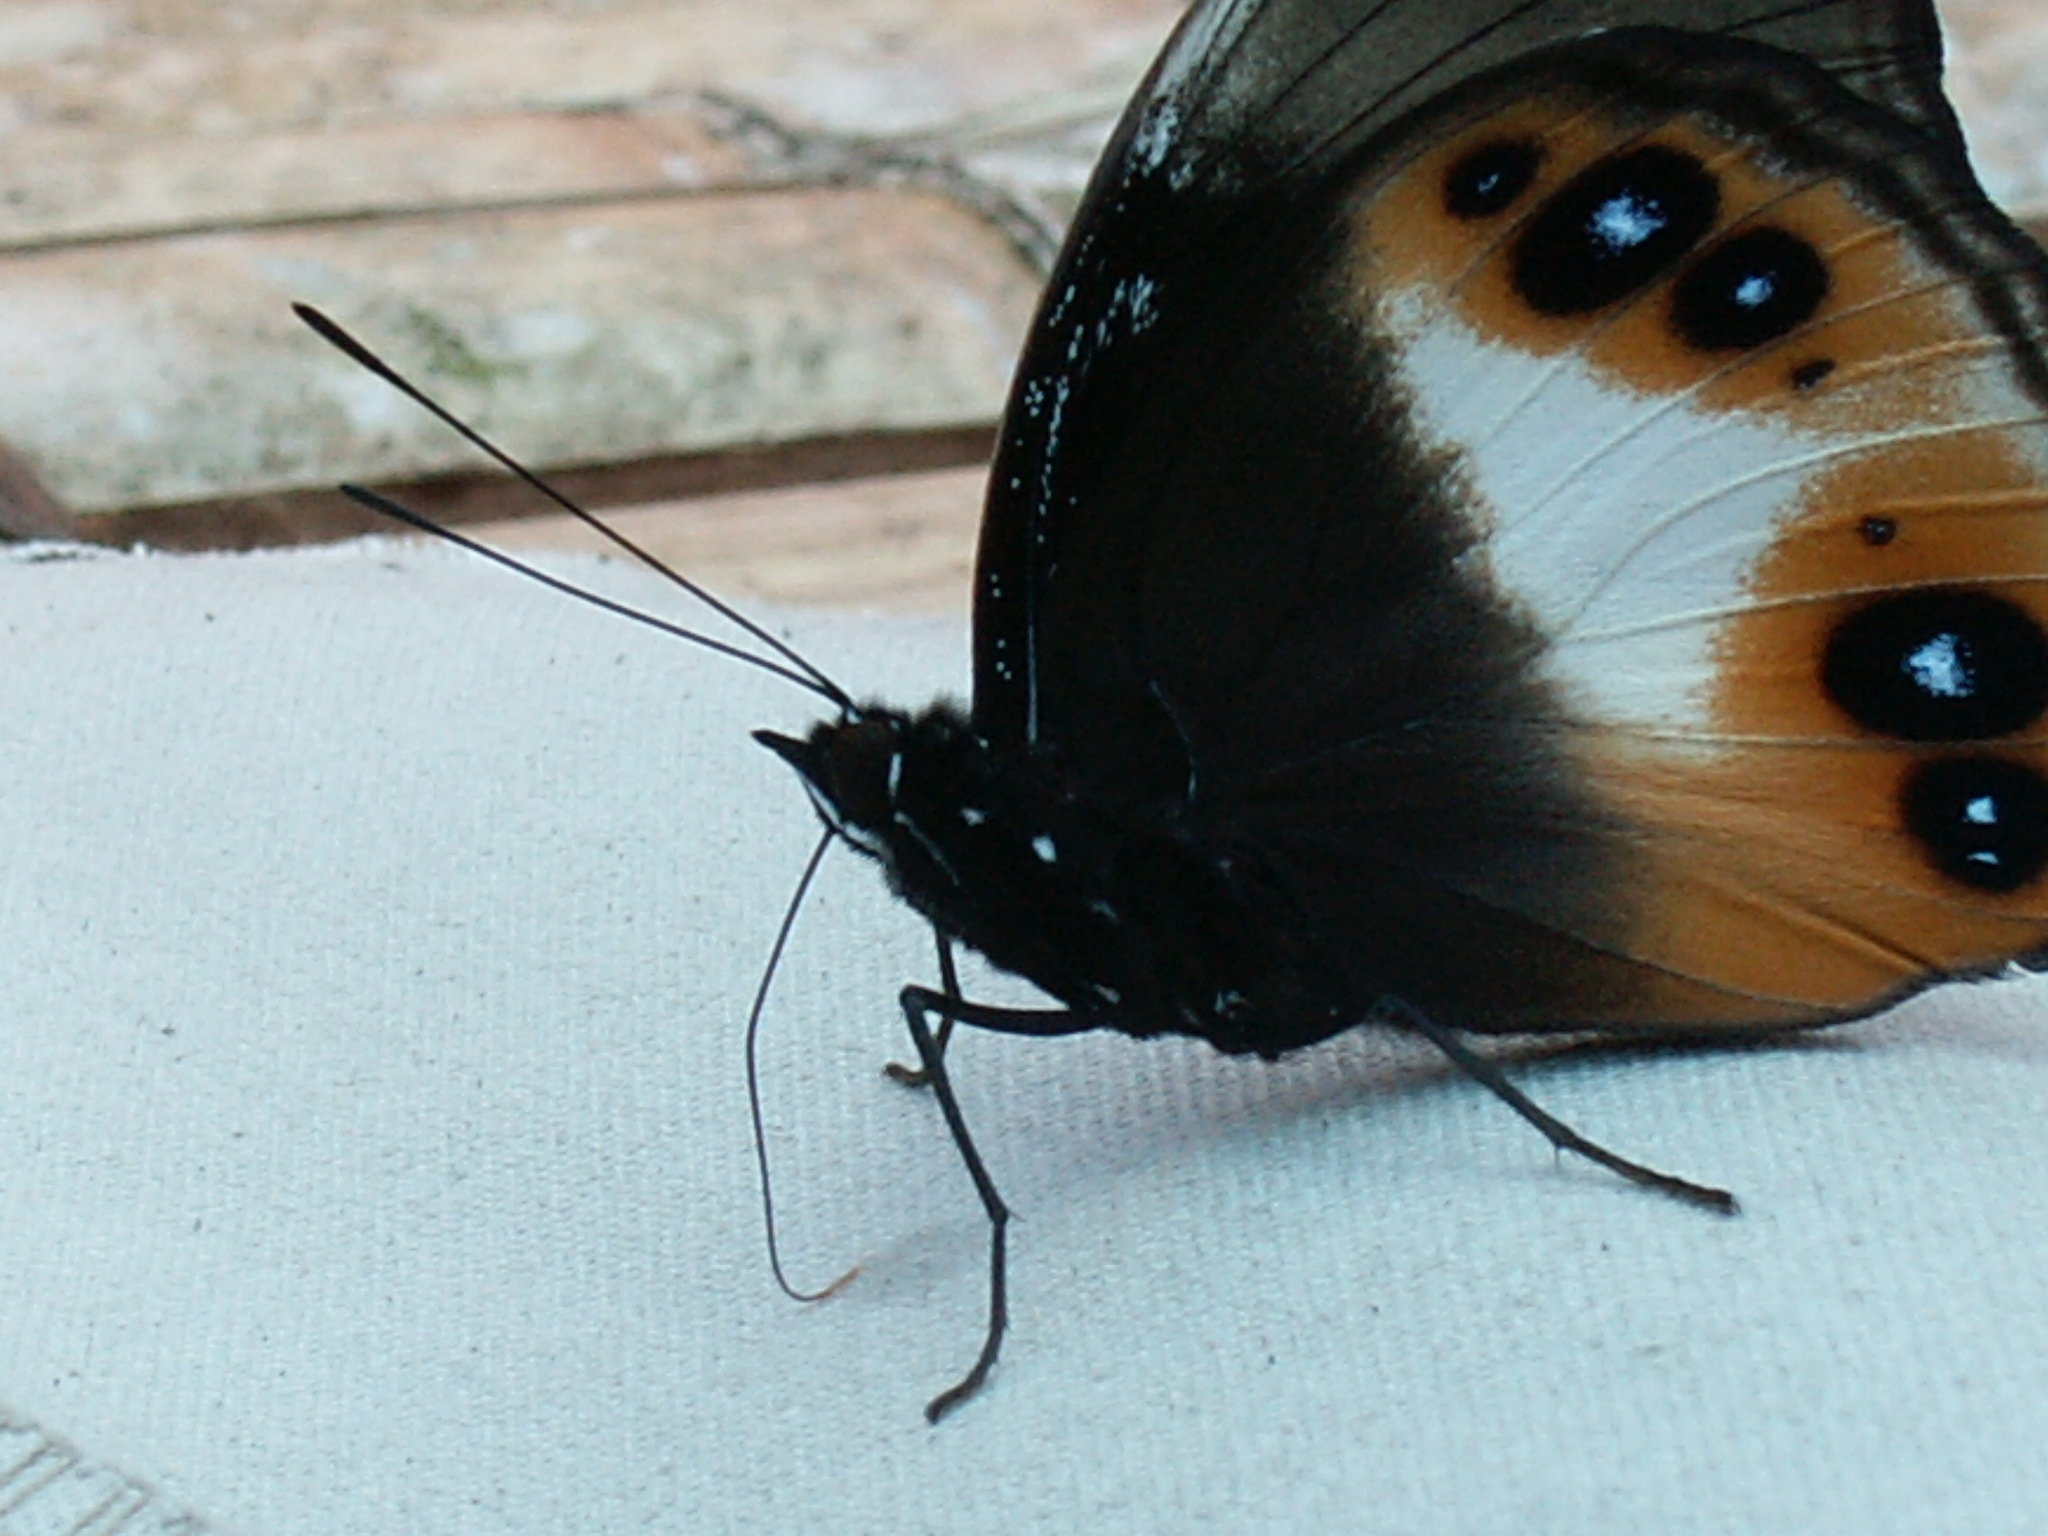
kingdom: Animalia
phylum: Arthropoda
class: Insecta
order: Lepidoptera
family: Nymphalidae
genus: Hypolimnas
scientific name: Hypolimnas deois
